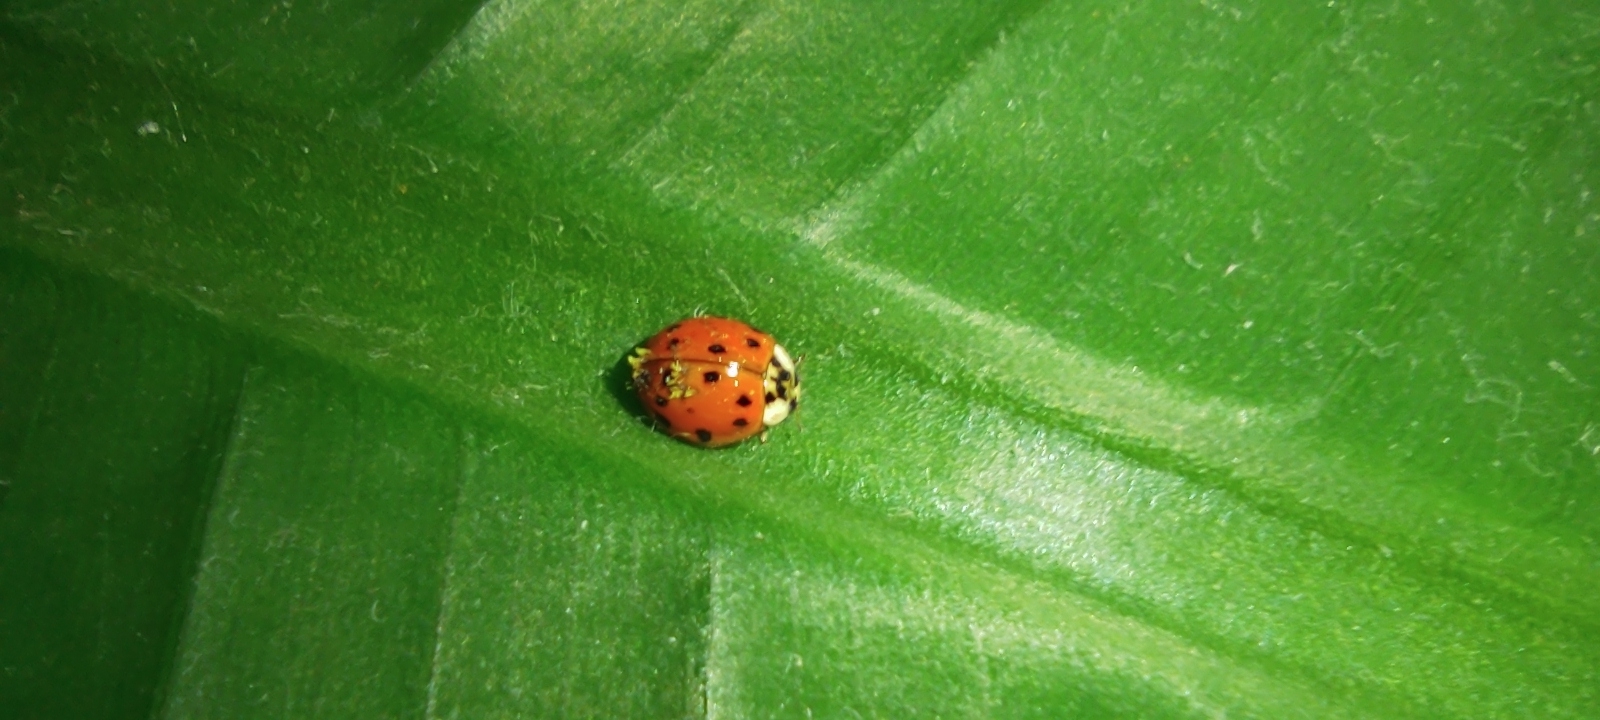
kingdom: Animalia
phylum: Arthropoda
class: Insecta
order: Coleoptera
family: Coccinellidae
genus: Harmonia
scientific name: Harmonia axyridis
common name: Harlequin ladybird
